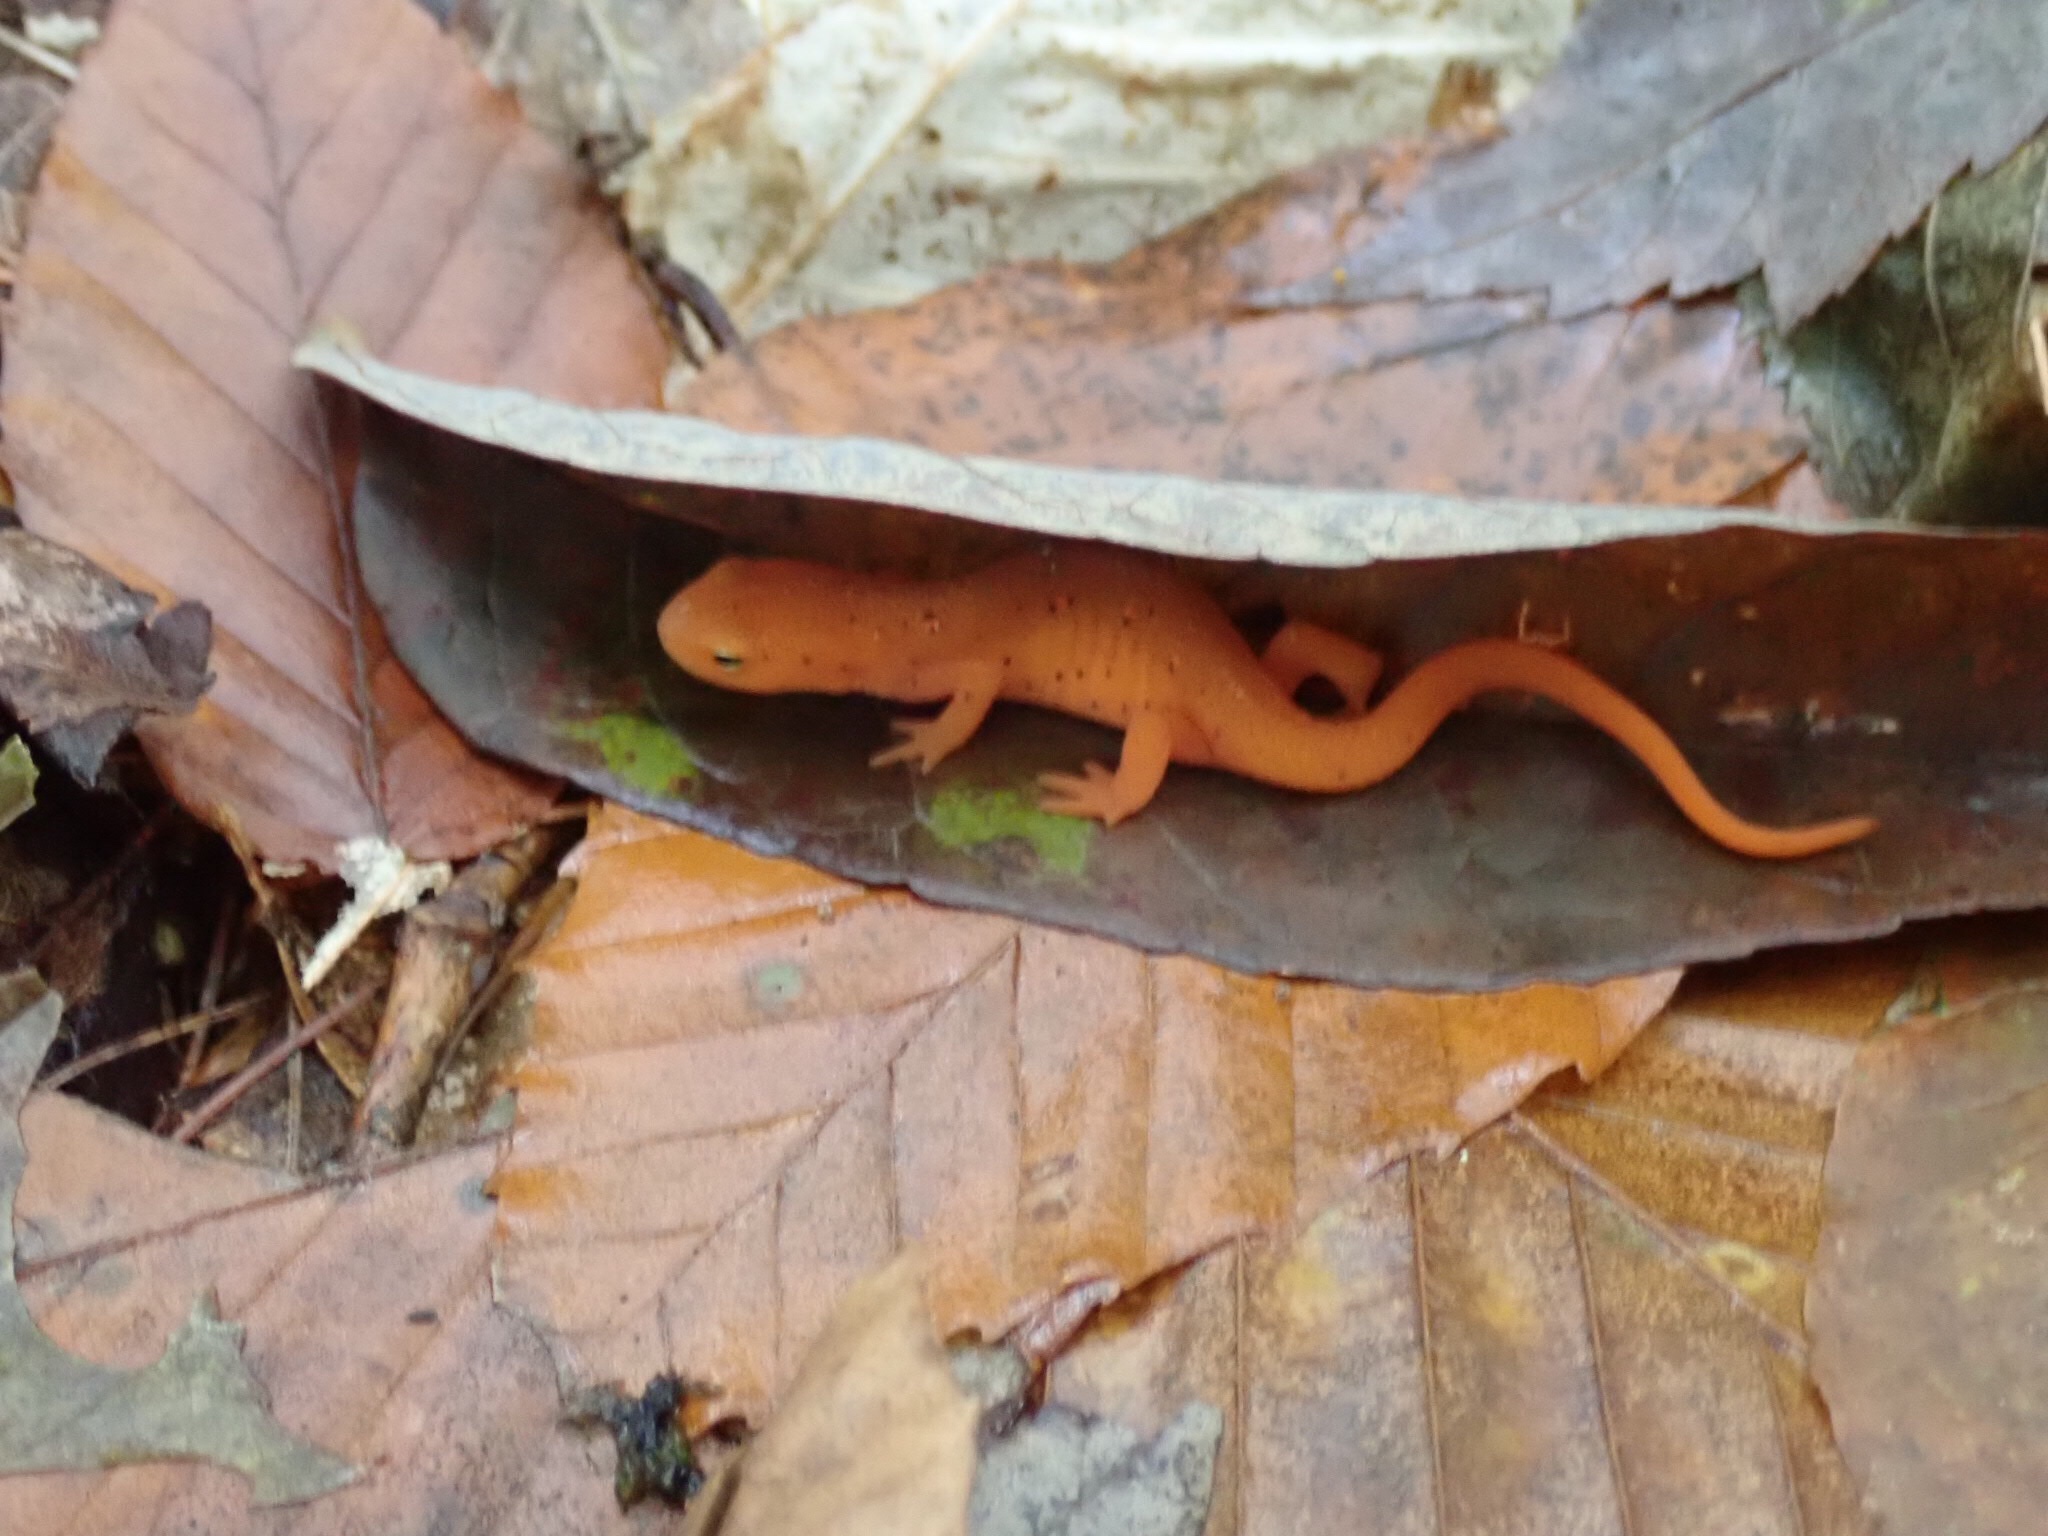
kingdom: Animalia
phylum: Chordata
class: Amphibia
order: Caudata
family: Salamandridae
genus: Notophthalmus
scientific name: Notophthalmus viridescens
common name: Eastern newt
